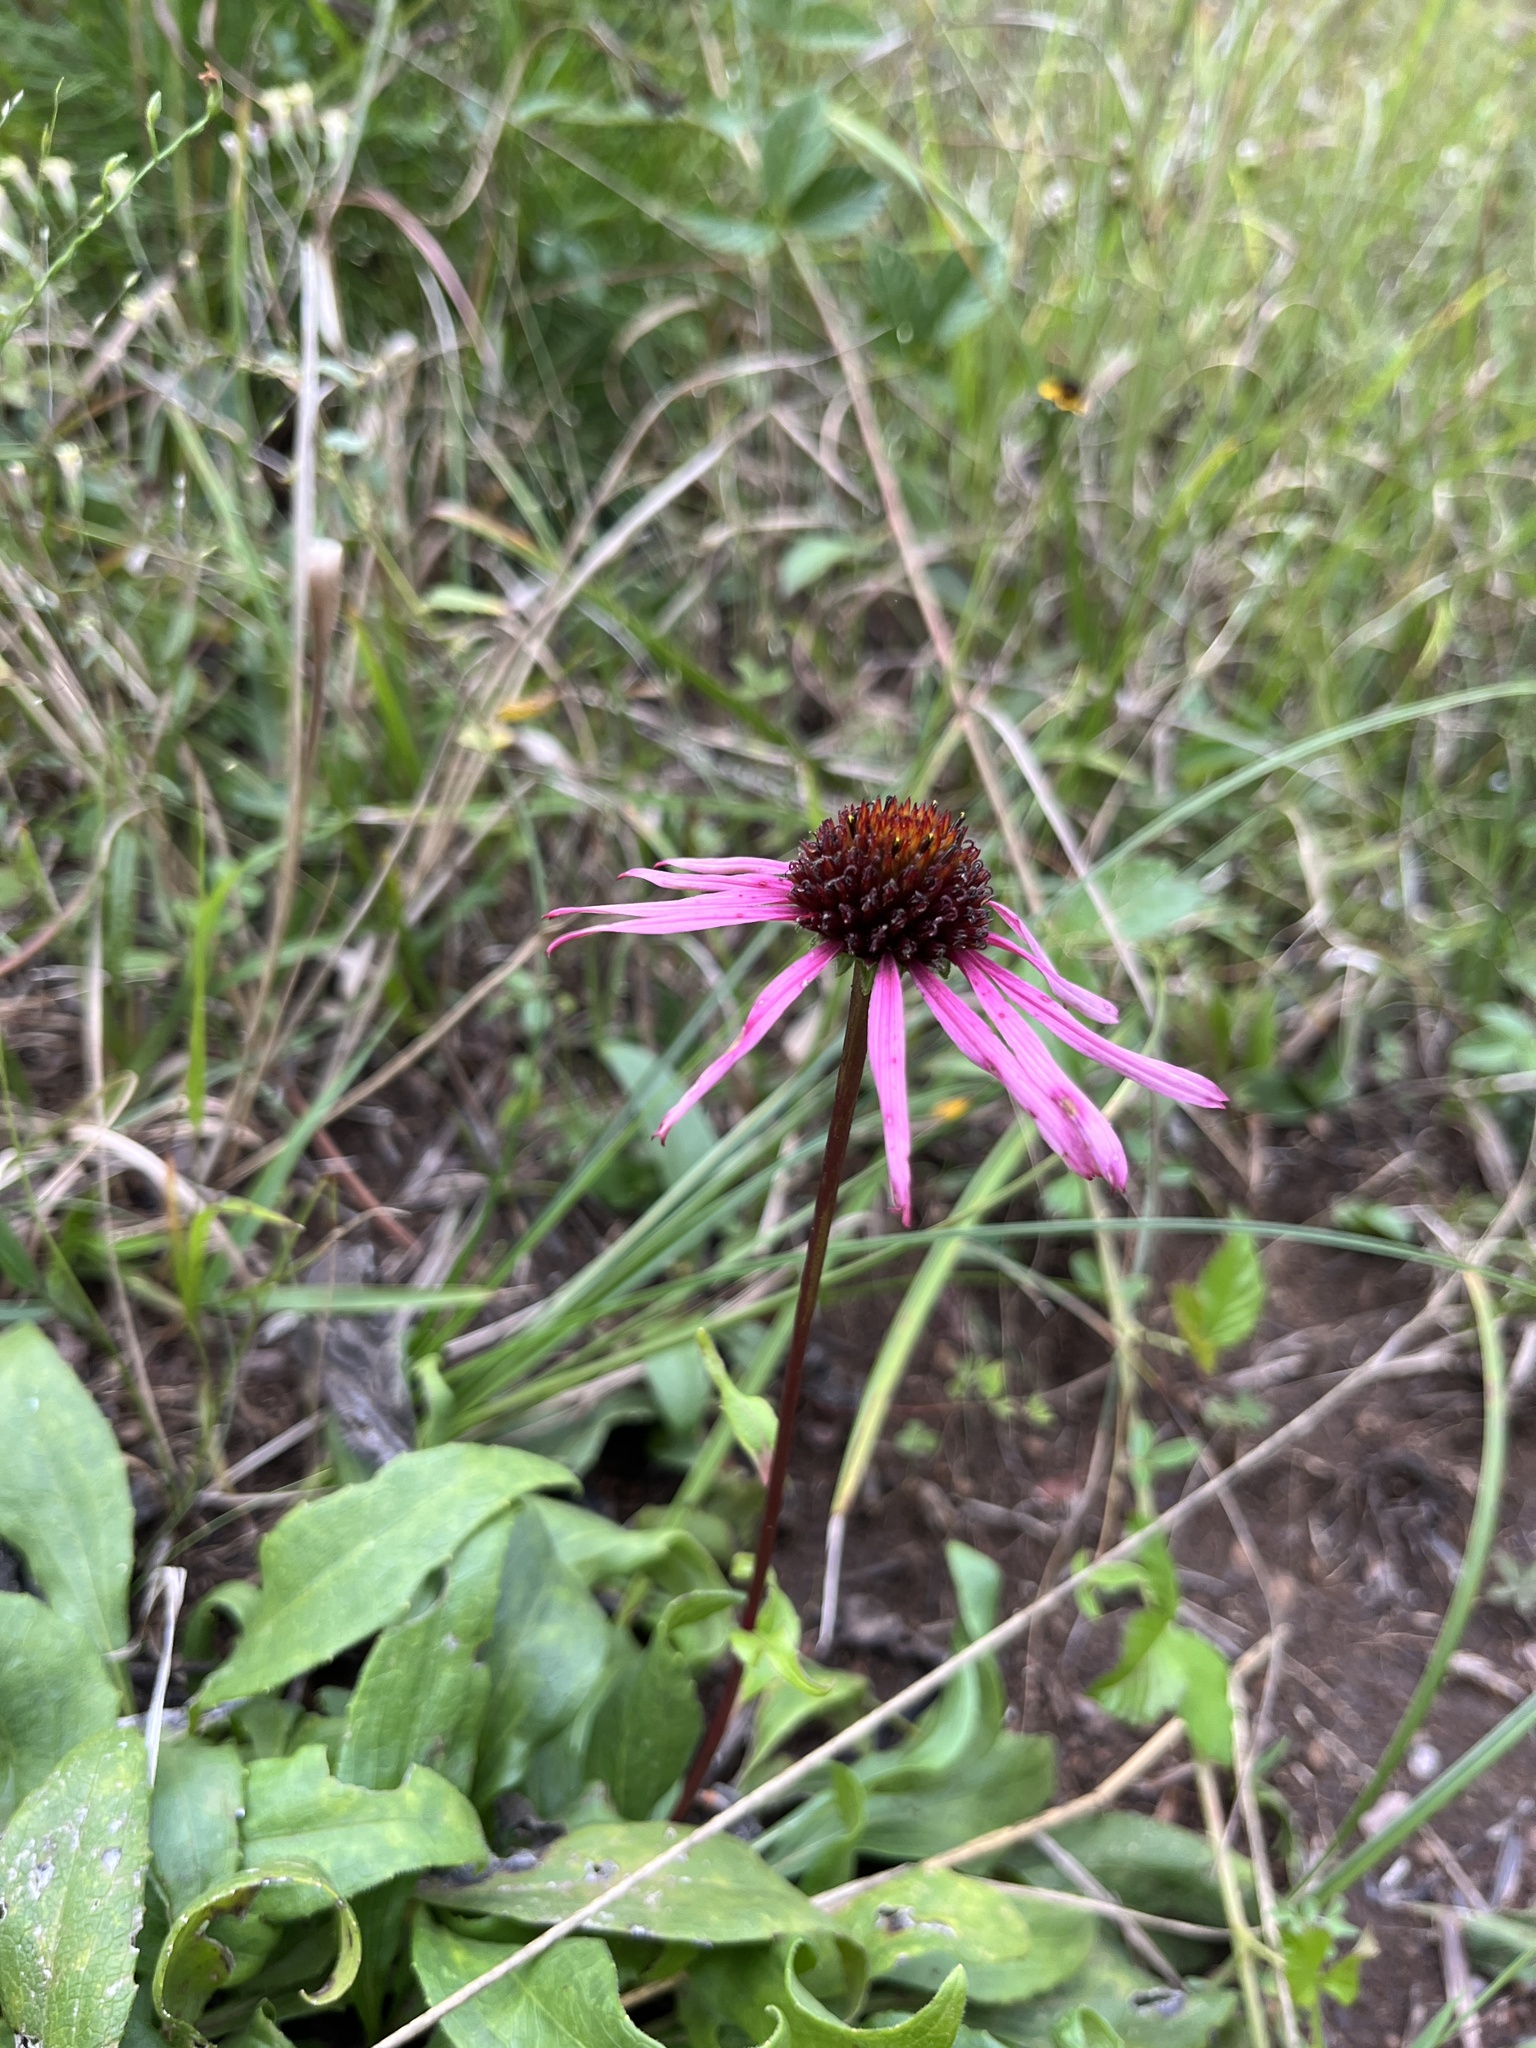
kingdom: Plantae
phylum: Tracheophyta
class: Magnoliopsida
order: Asterales
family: Asteraceae
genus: Echinacea
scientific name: Echinacea laevigata
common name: Smooth coneflower
